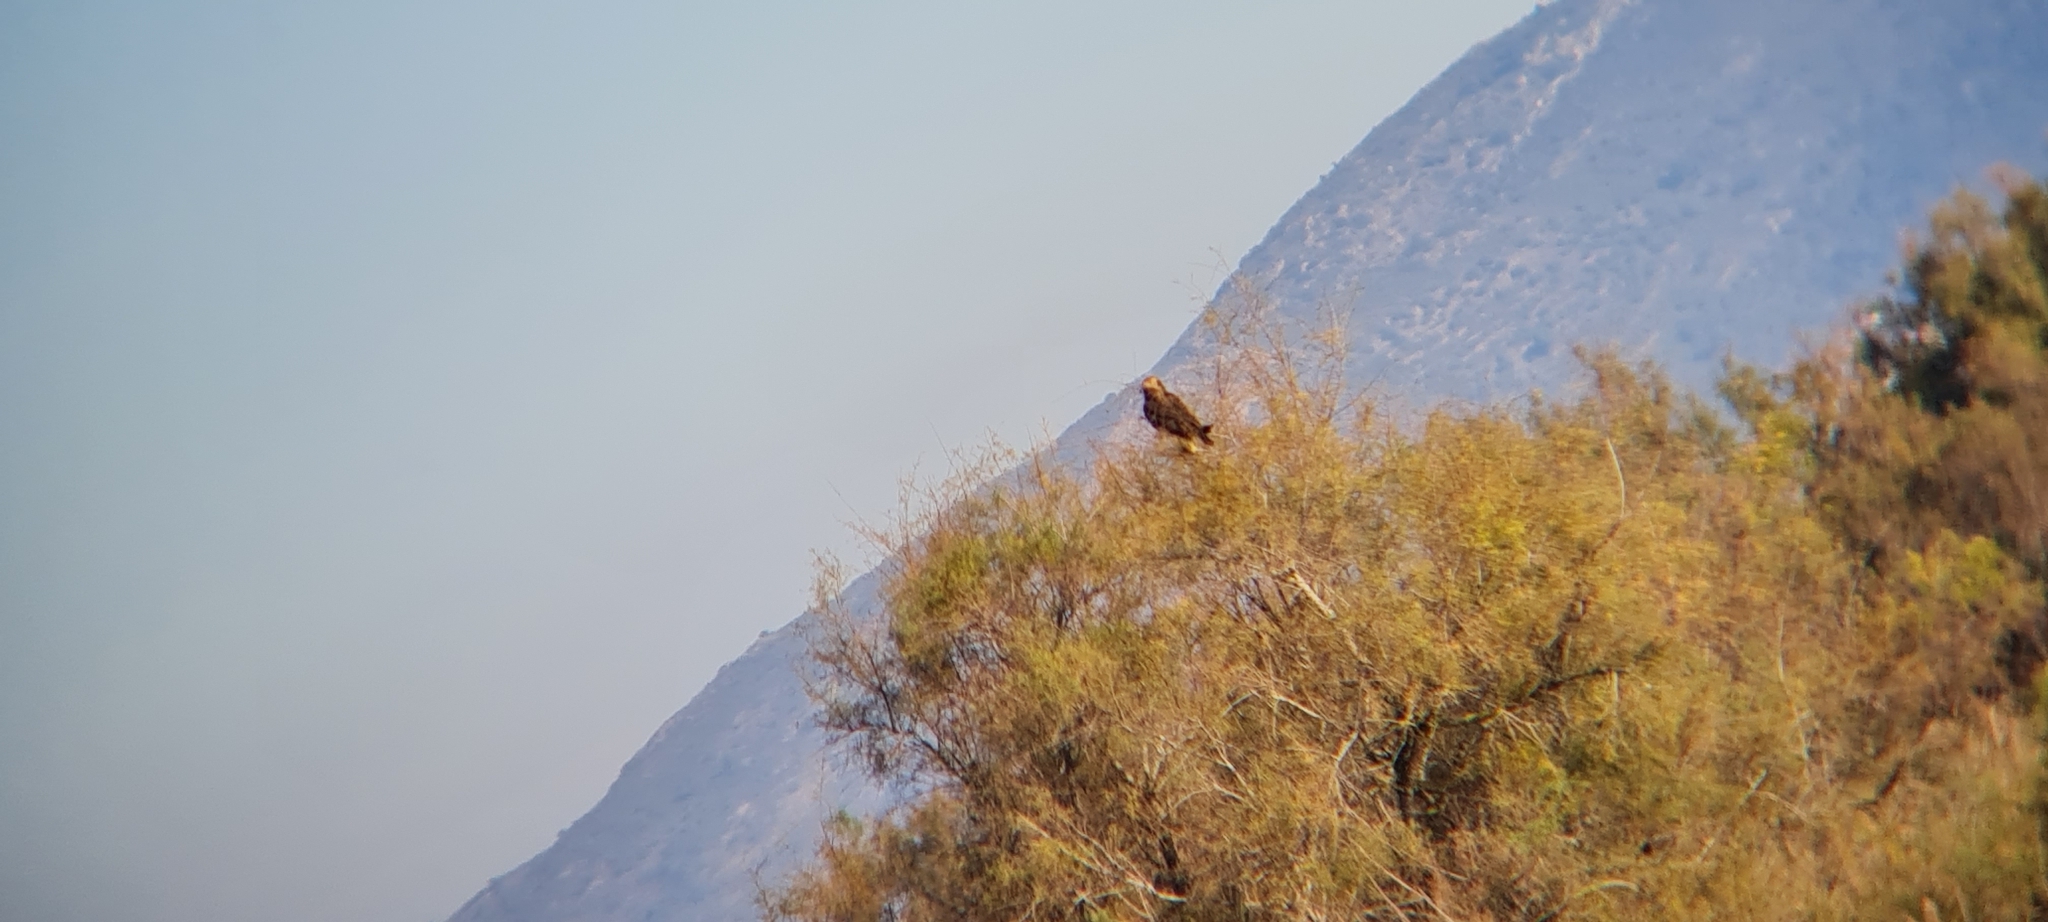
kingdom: Animalia
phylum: Chordata
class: Aves
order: Accipitriformes
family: Accipitridae
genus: Circus
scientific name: Circus aeruginosus
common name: Western marsh harrier
